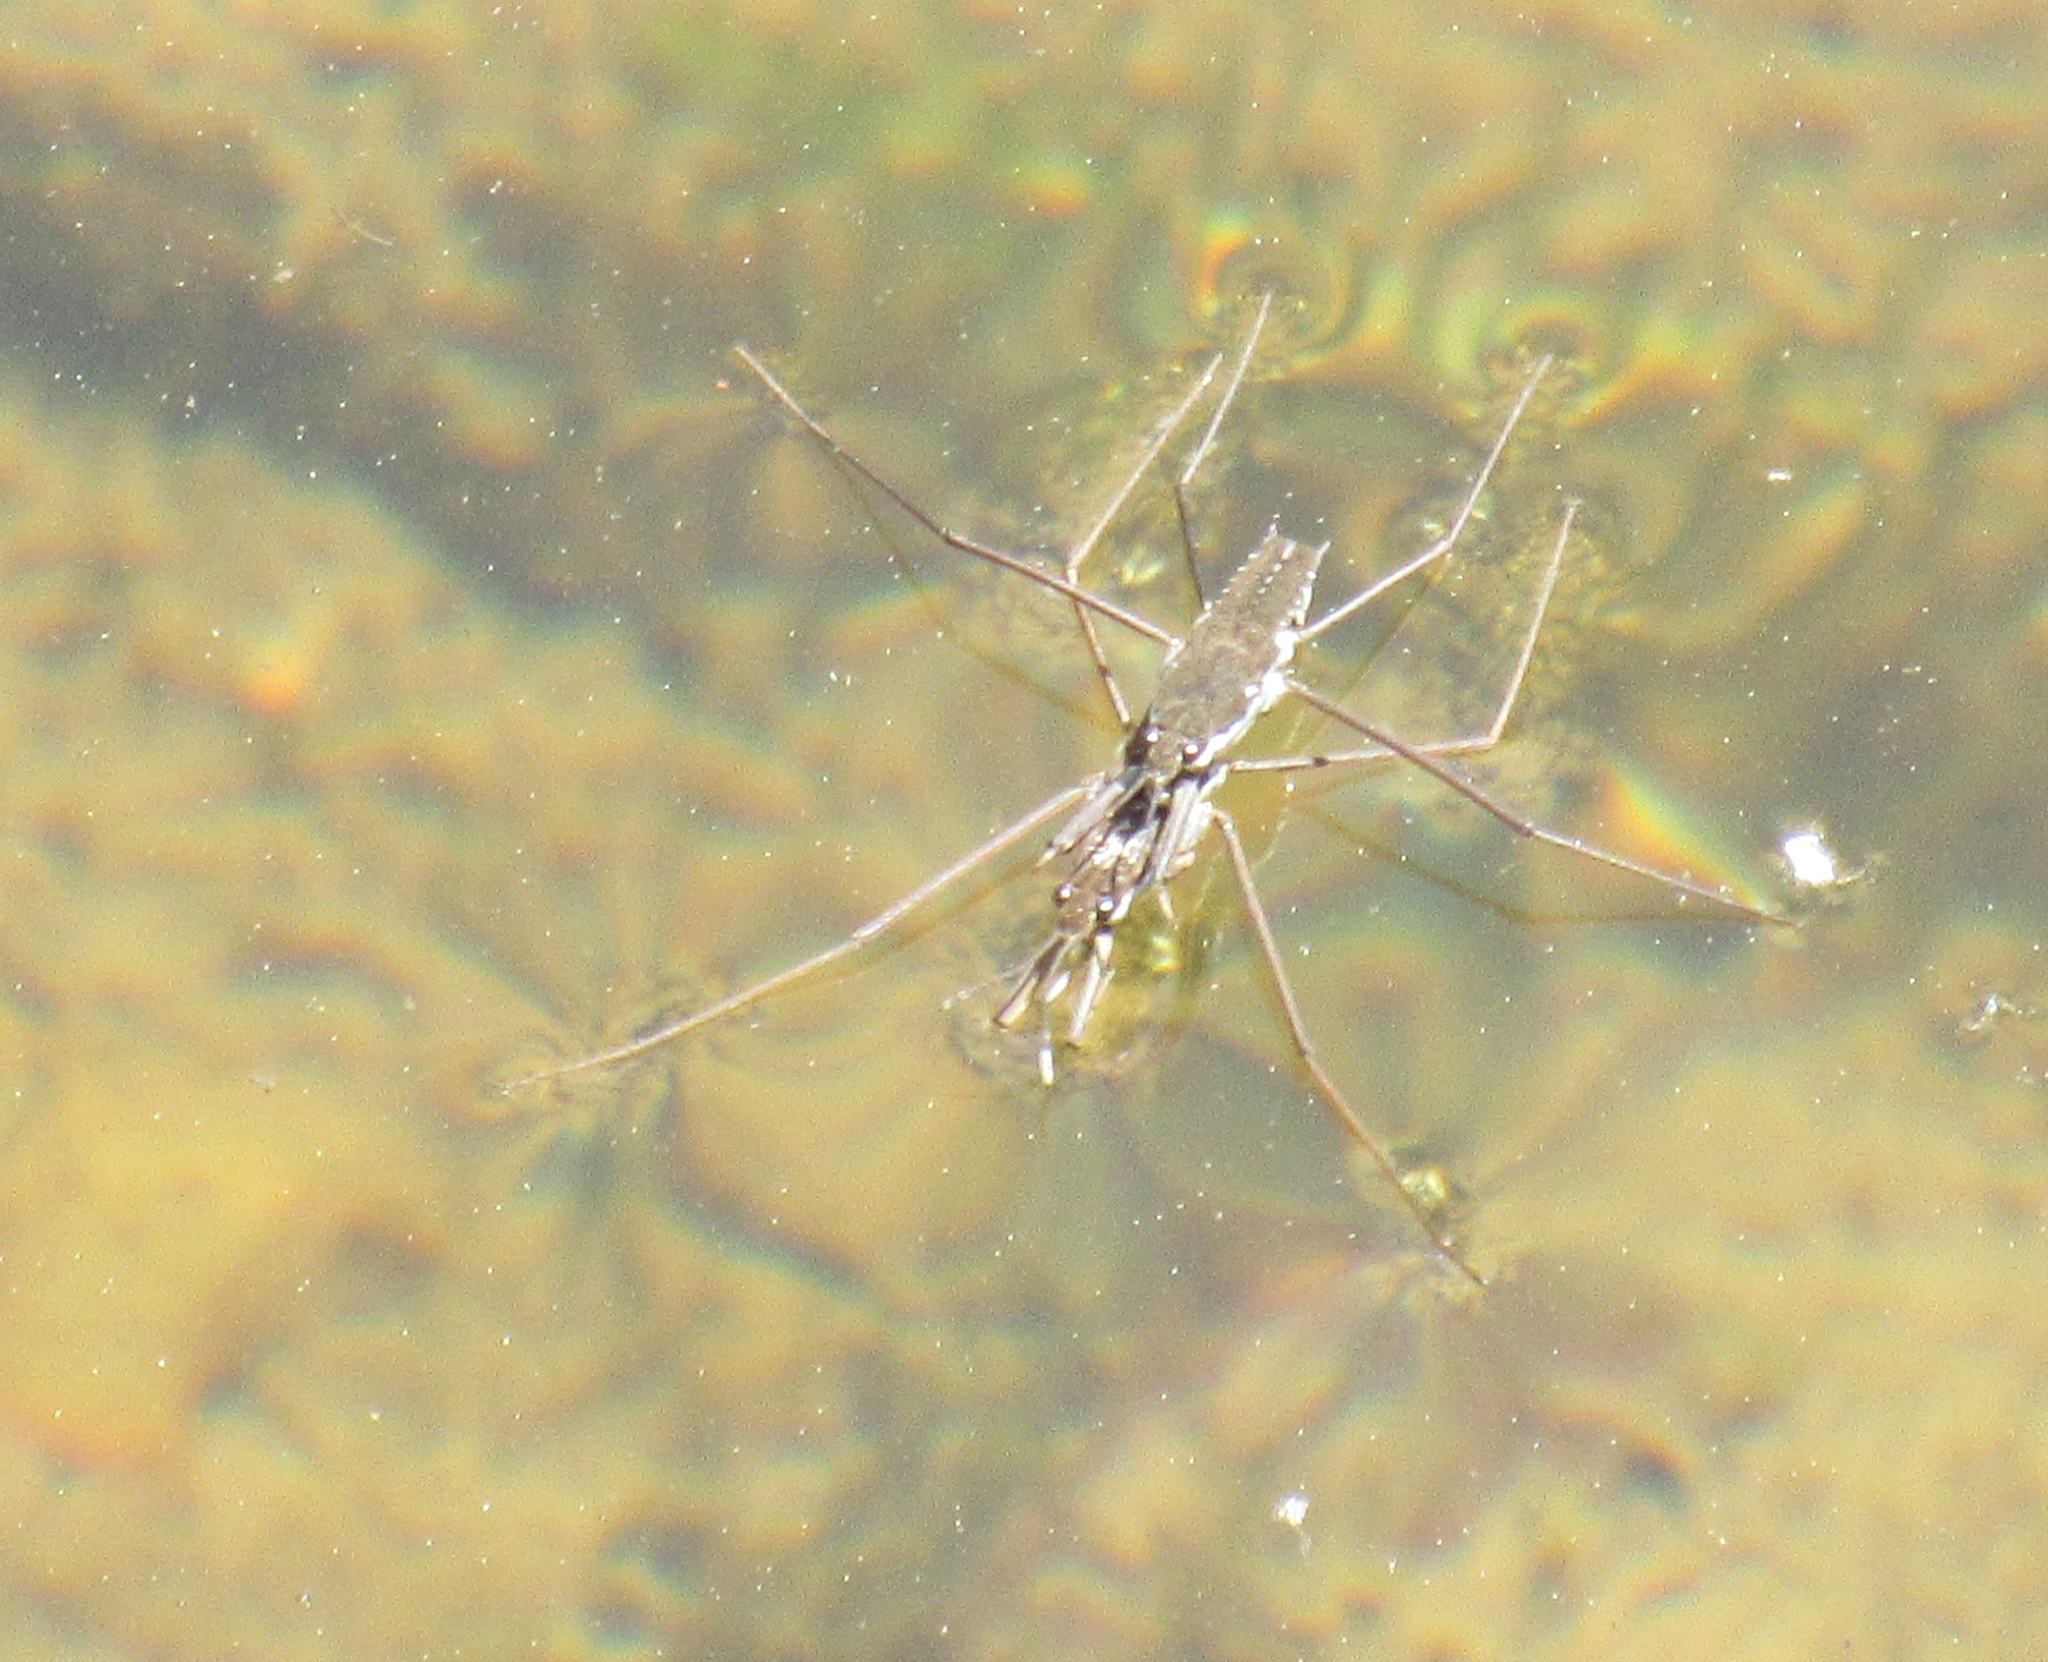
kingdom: Animalia
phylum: Arthropoda
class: Insecta
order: Hemiptera
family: Gerridae
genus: Aquarius
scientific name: Aquarius remigis
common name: Common water strider
